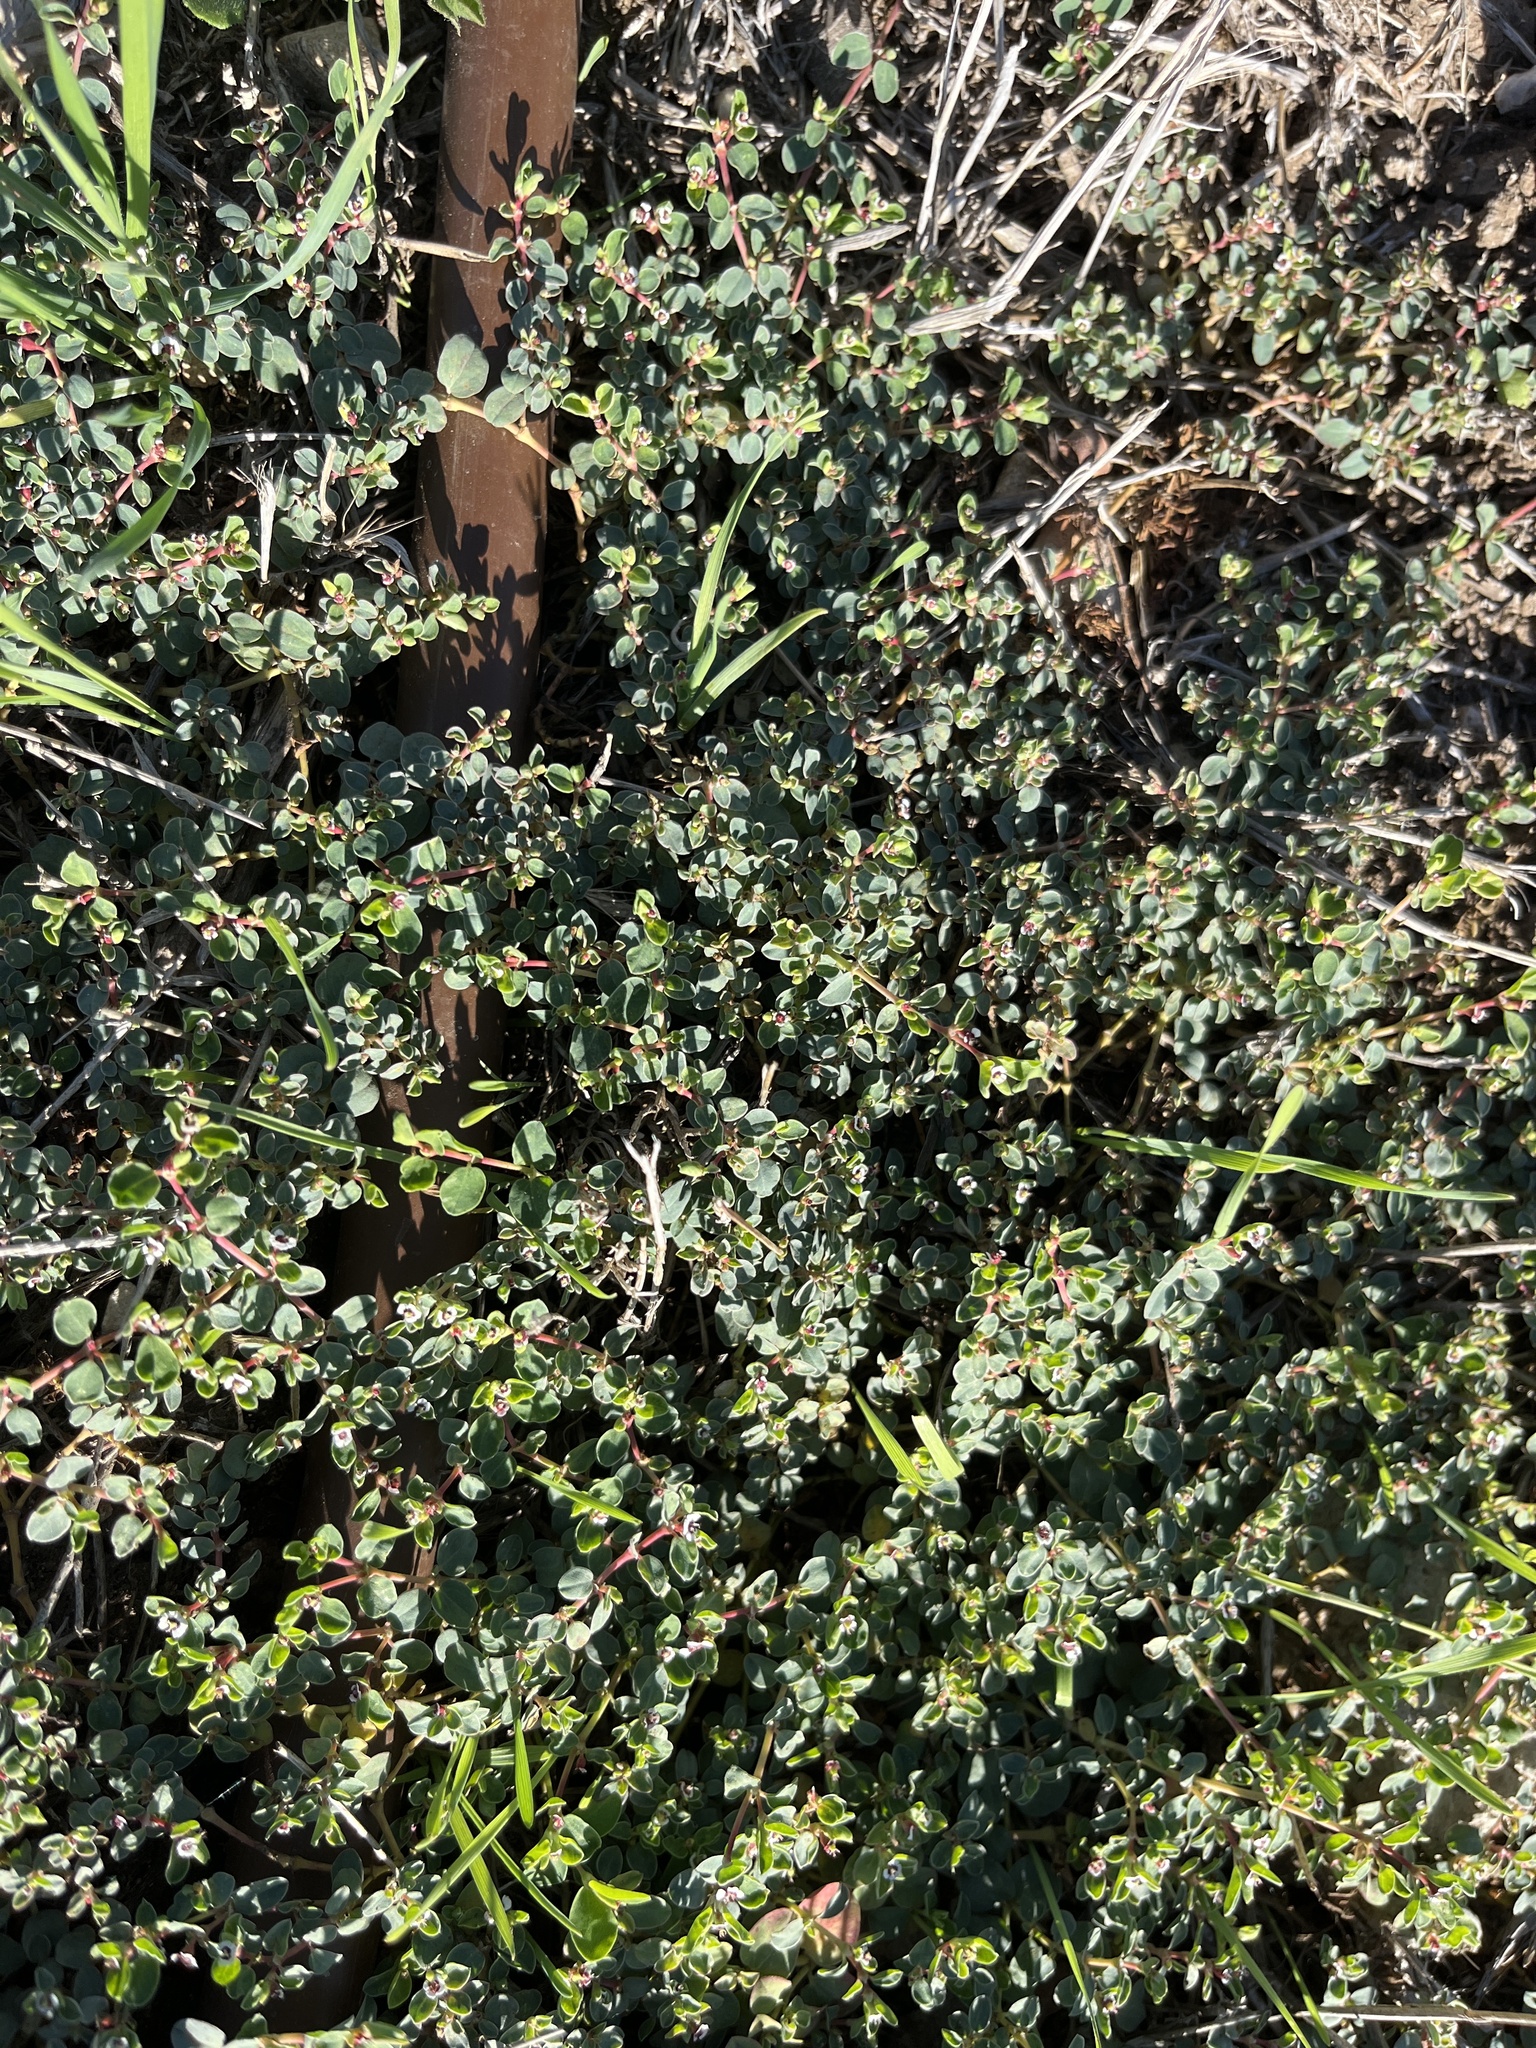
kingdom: Plantae
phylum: Tracheophyta
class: Magnoliopsida
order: Malpighiales
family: Euphorbiaceae
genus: Euphorbia
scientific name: Euphorbia albomarginata
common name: Whitemargin sandmat
